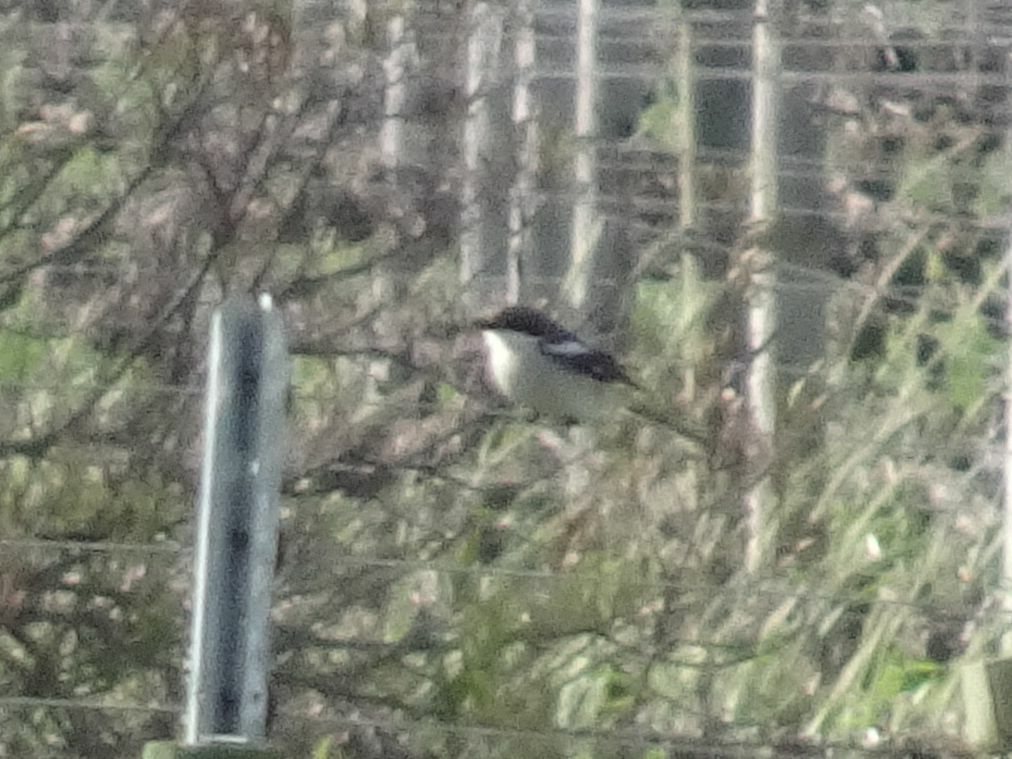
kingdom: Animalia
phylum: Chordata
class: Aves
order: Passeriformes
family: Laniidae
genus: Lanius
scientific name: Lanius collaris
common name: Southern fiscal
